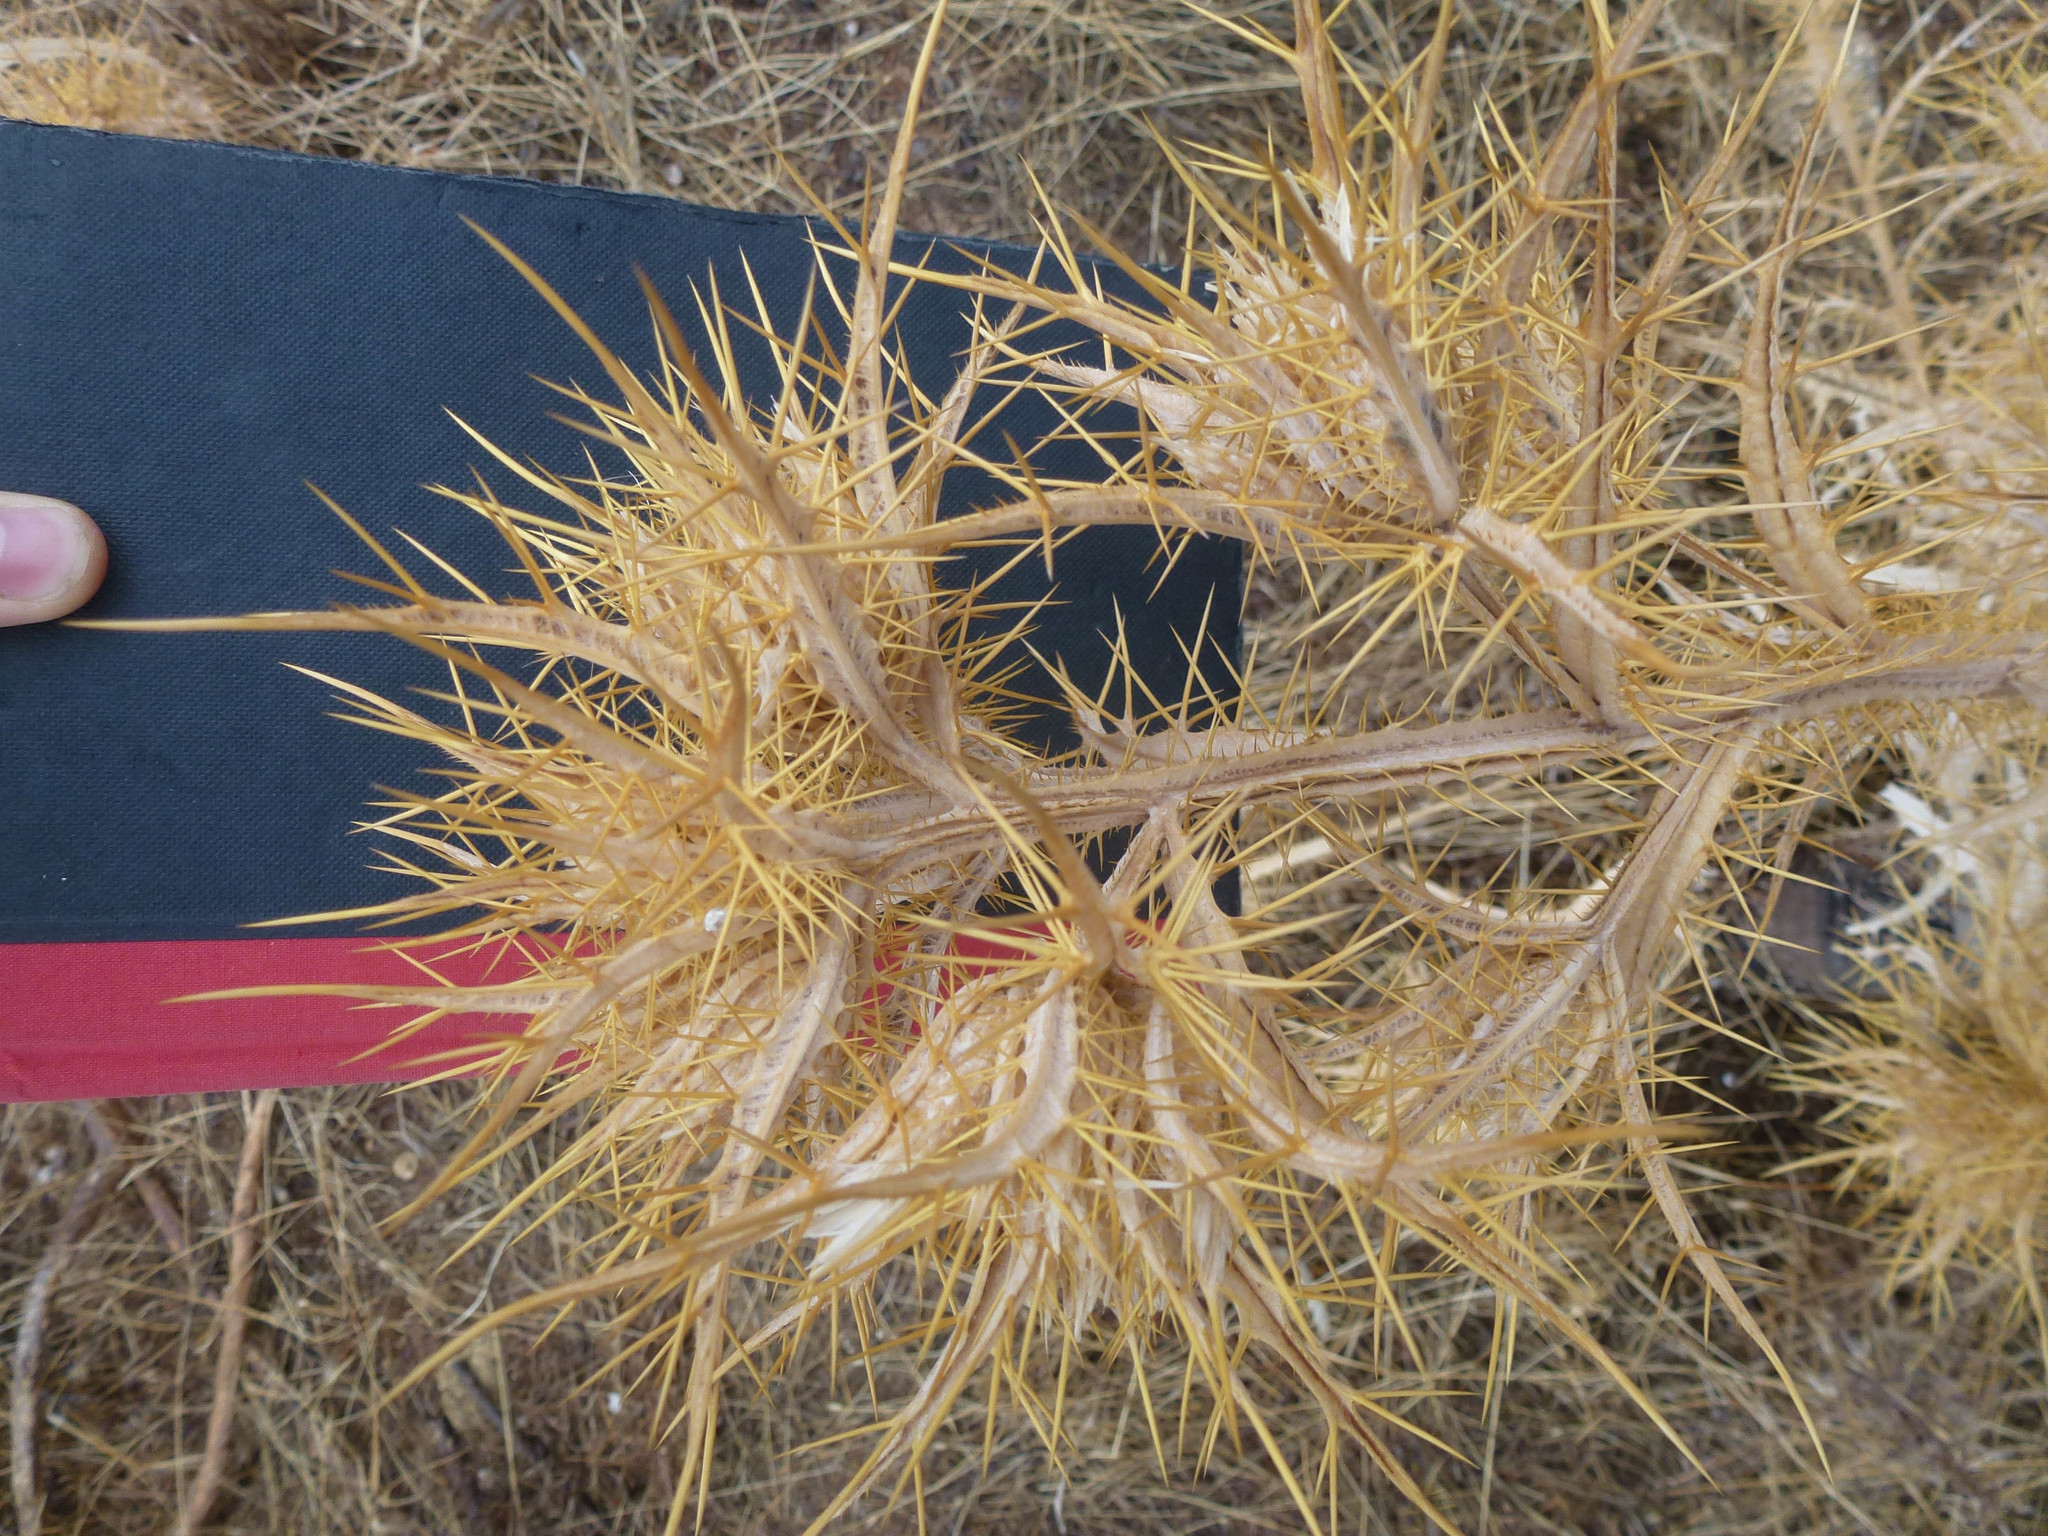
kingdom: Plantae
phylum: Tracheophyta
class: Magnoliopsida
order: Asterales
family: Asteraceae
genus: Picnomon
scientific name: Picnomon acarna
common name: Soldier thistle
